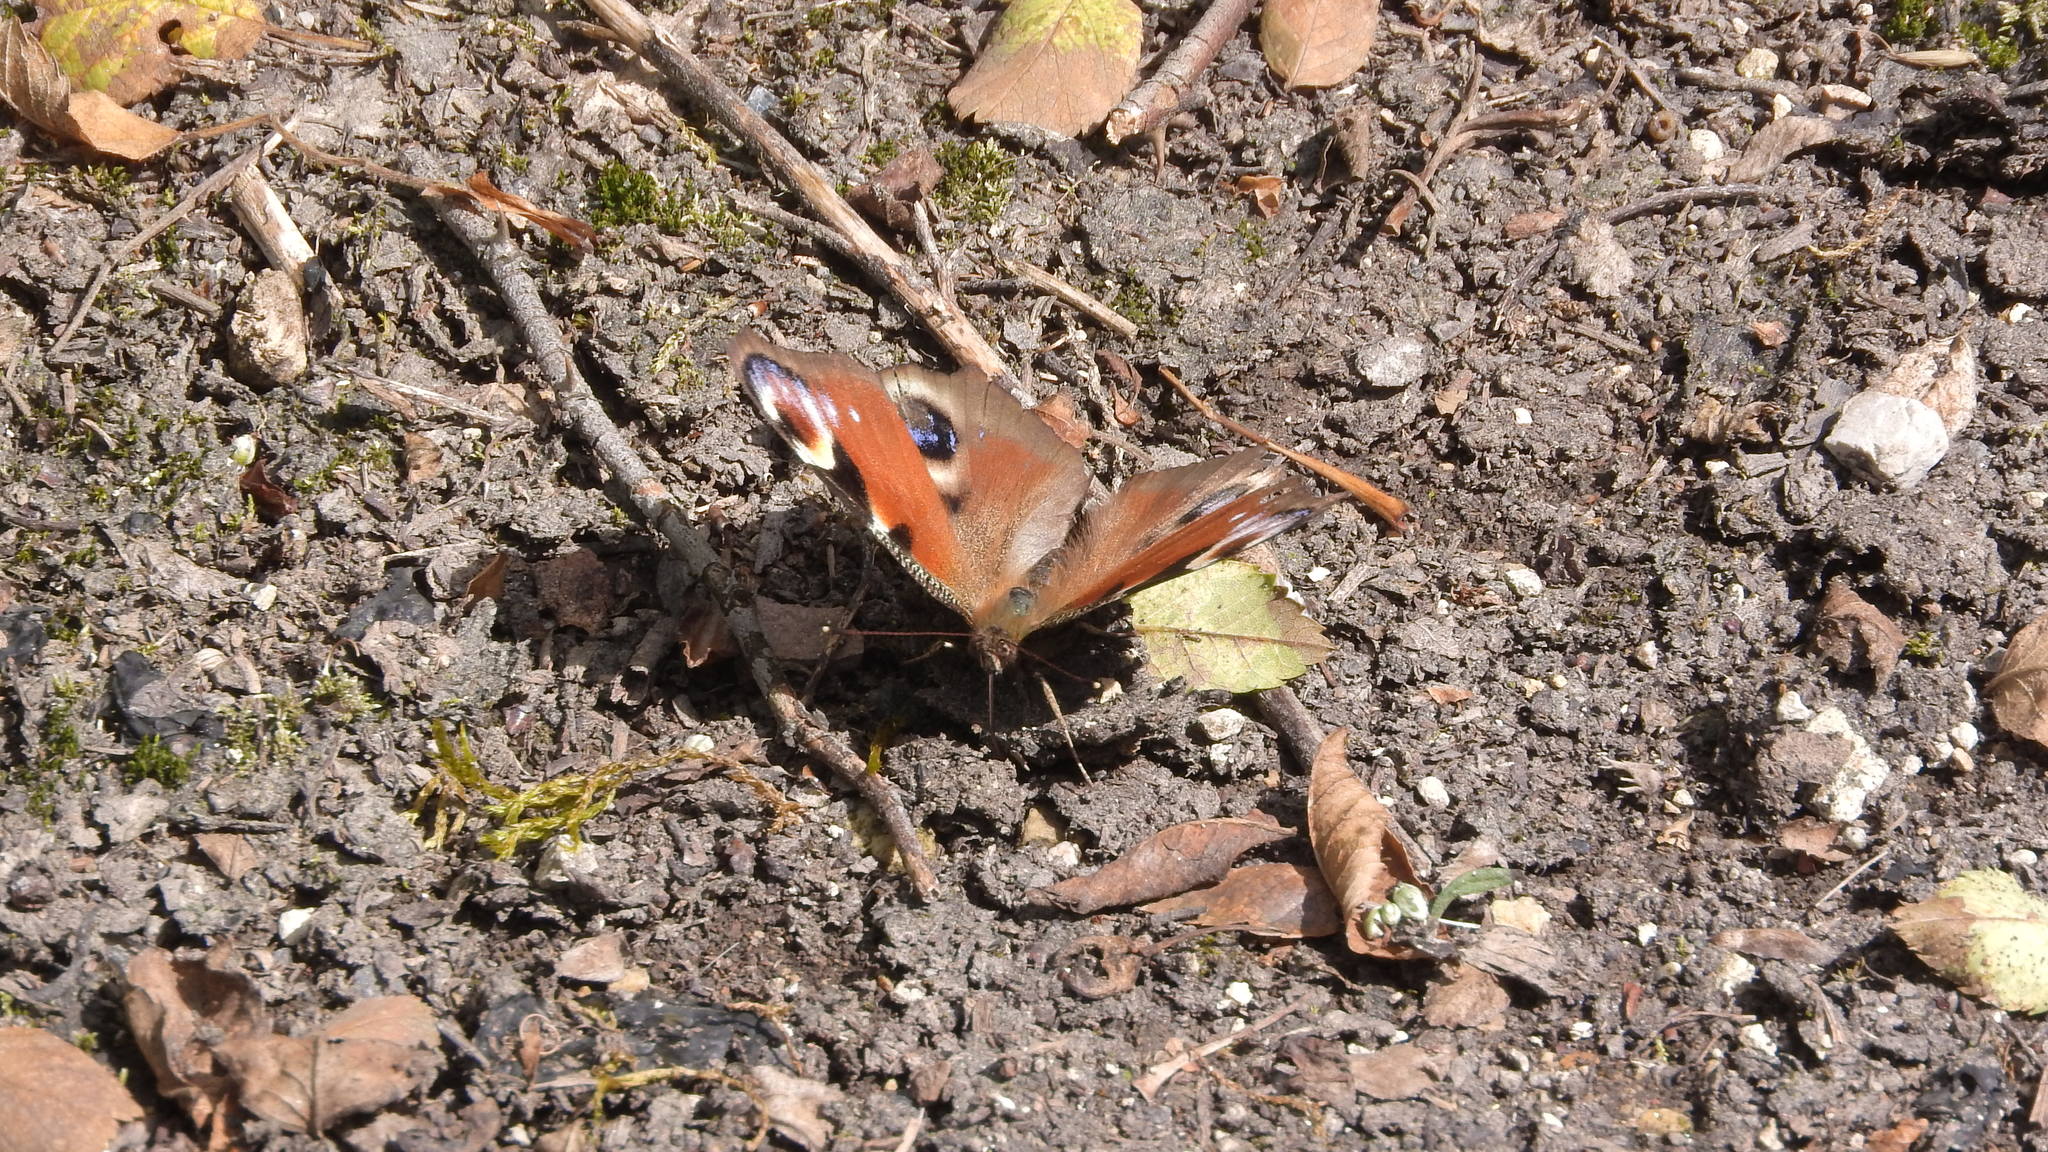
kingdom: Animalia
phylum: Arthropoda
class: Insecta
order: Lepidoptera
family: Nymphalidae
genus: Aglais
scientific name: Aglais io
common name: Peacock
